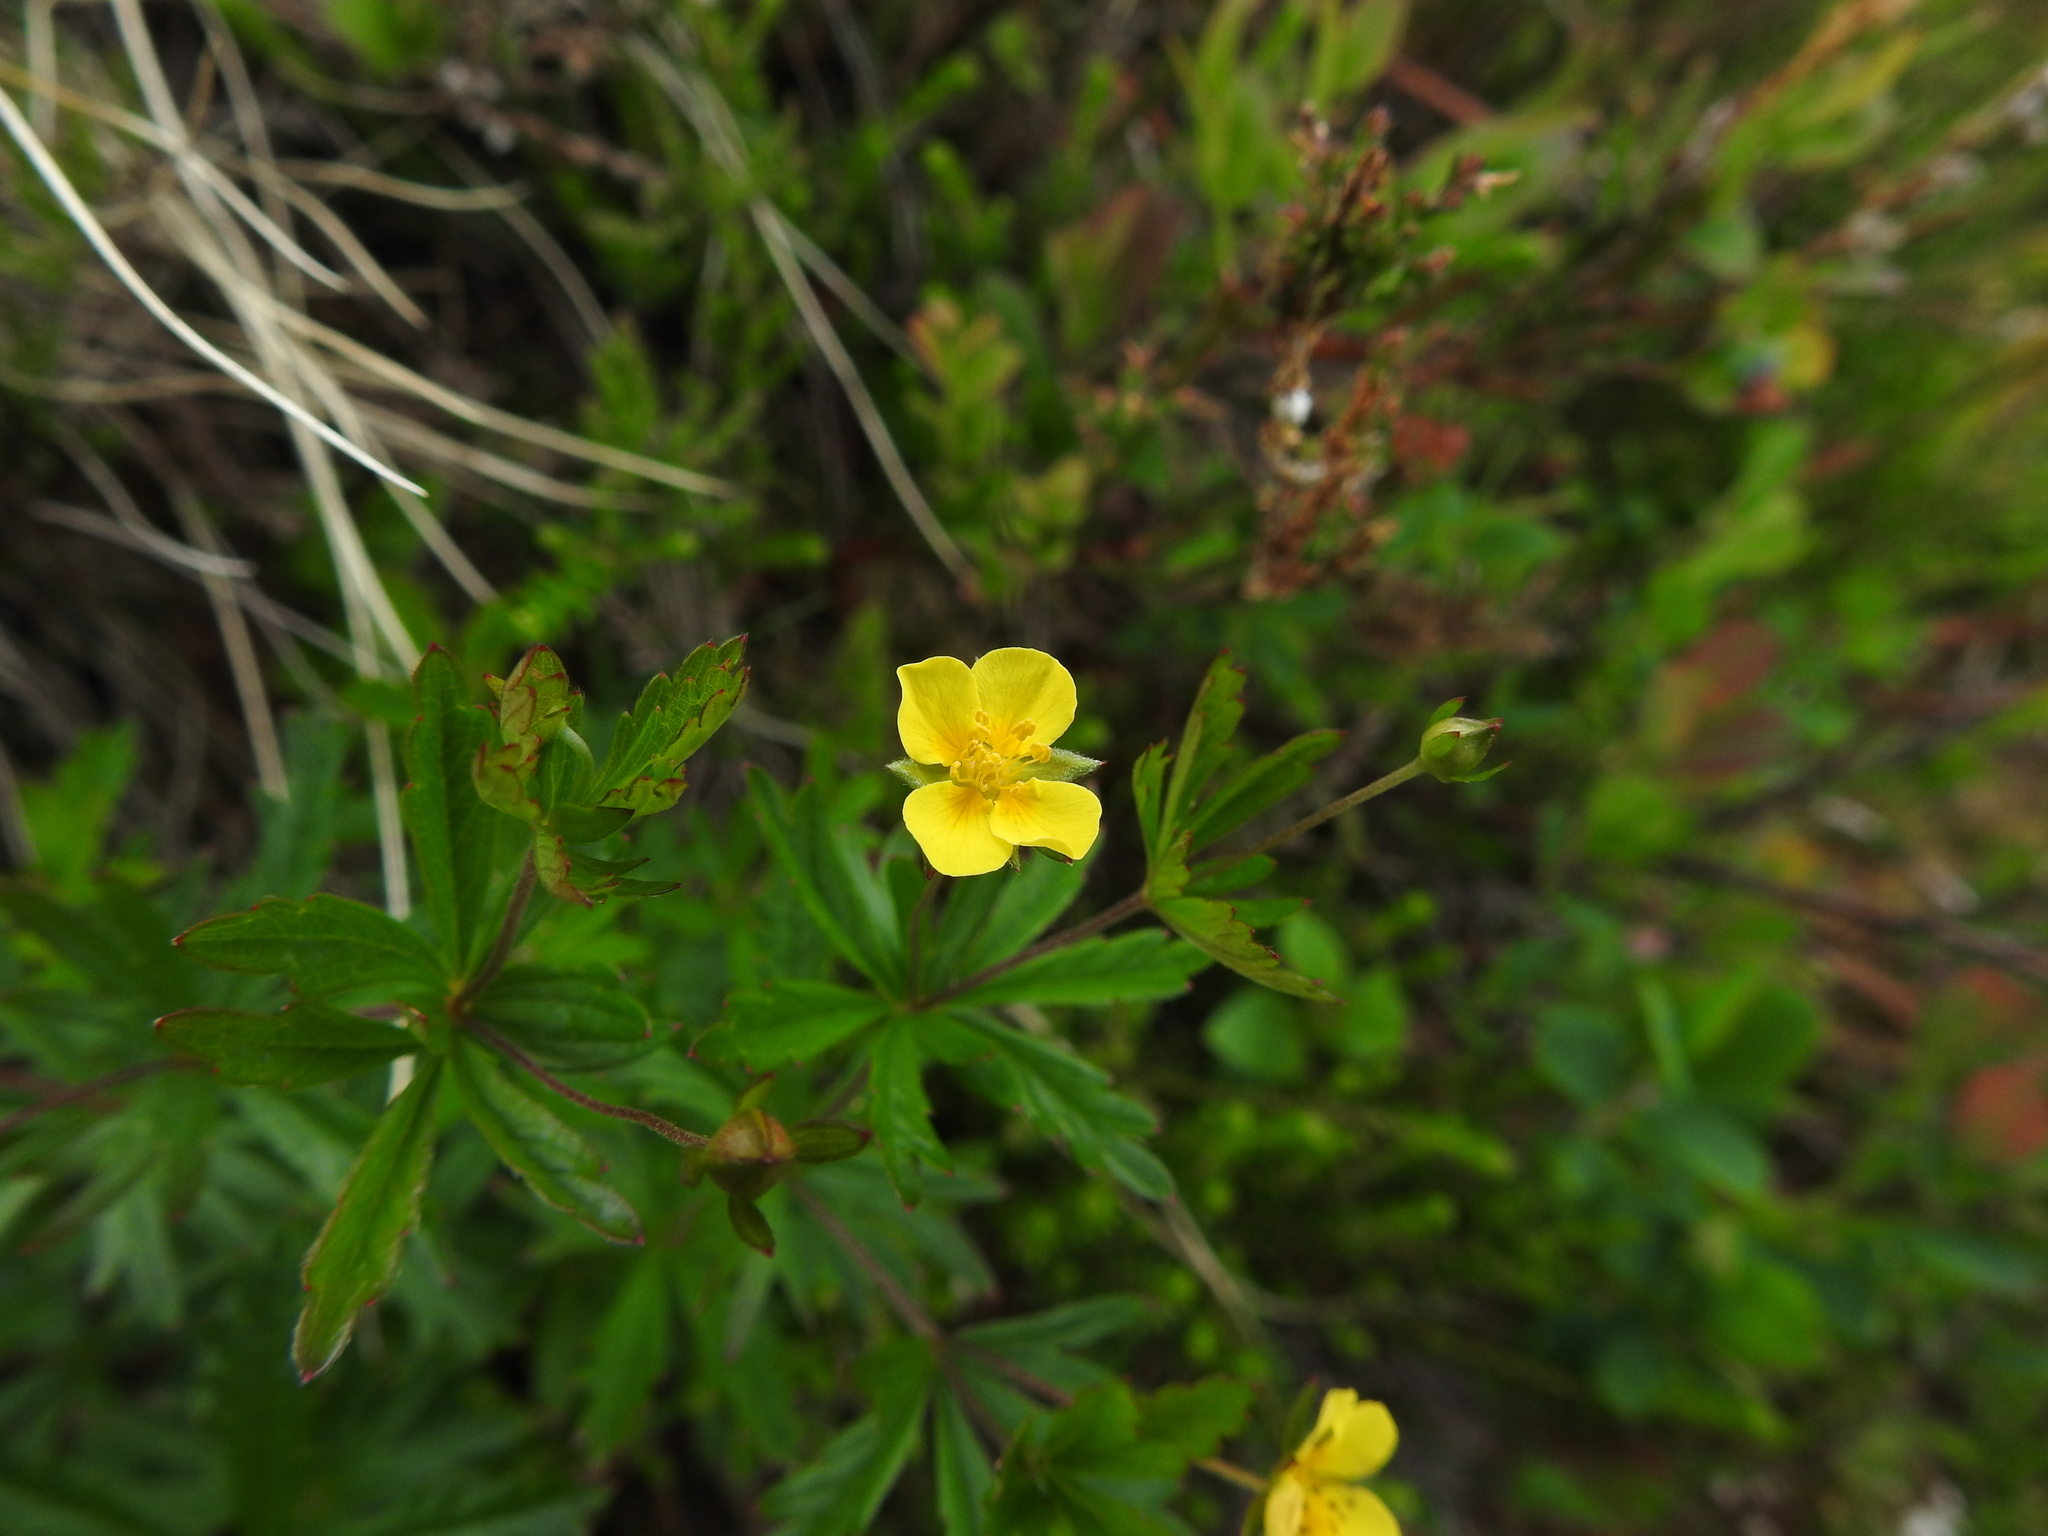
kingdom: Plantae
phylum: Tracheophyta
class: Magnoliopsida
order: Rosales
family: Rosaceae
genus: Potentilla
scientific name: Potentilla erecta
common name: Tormentil
